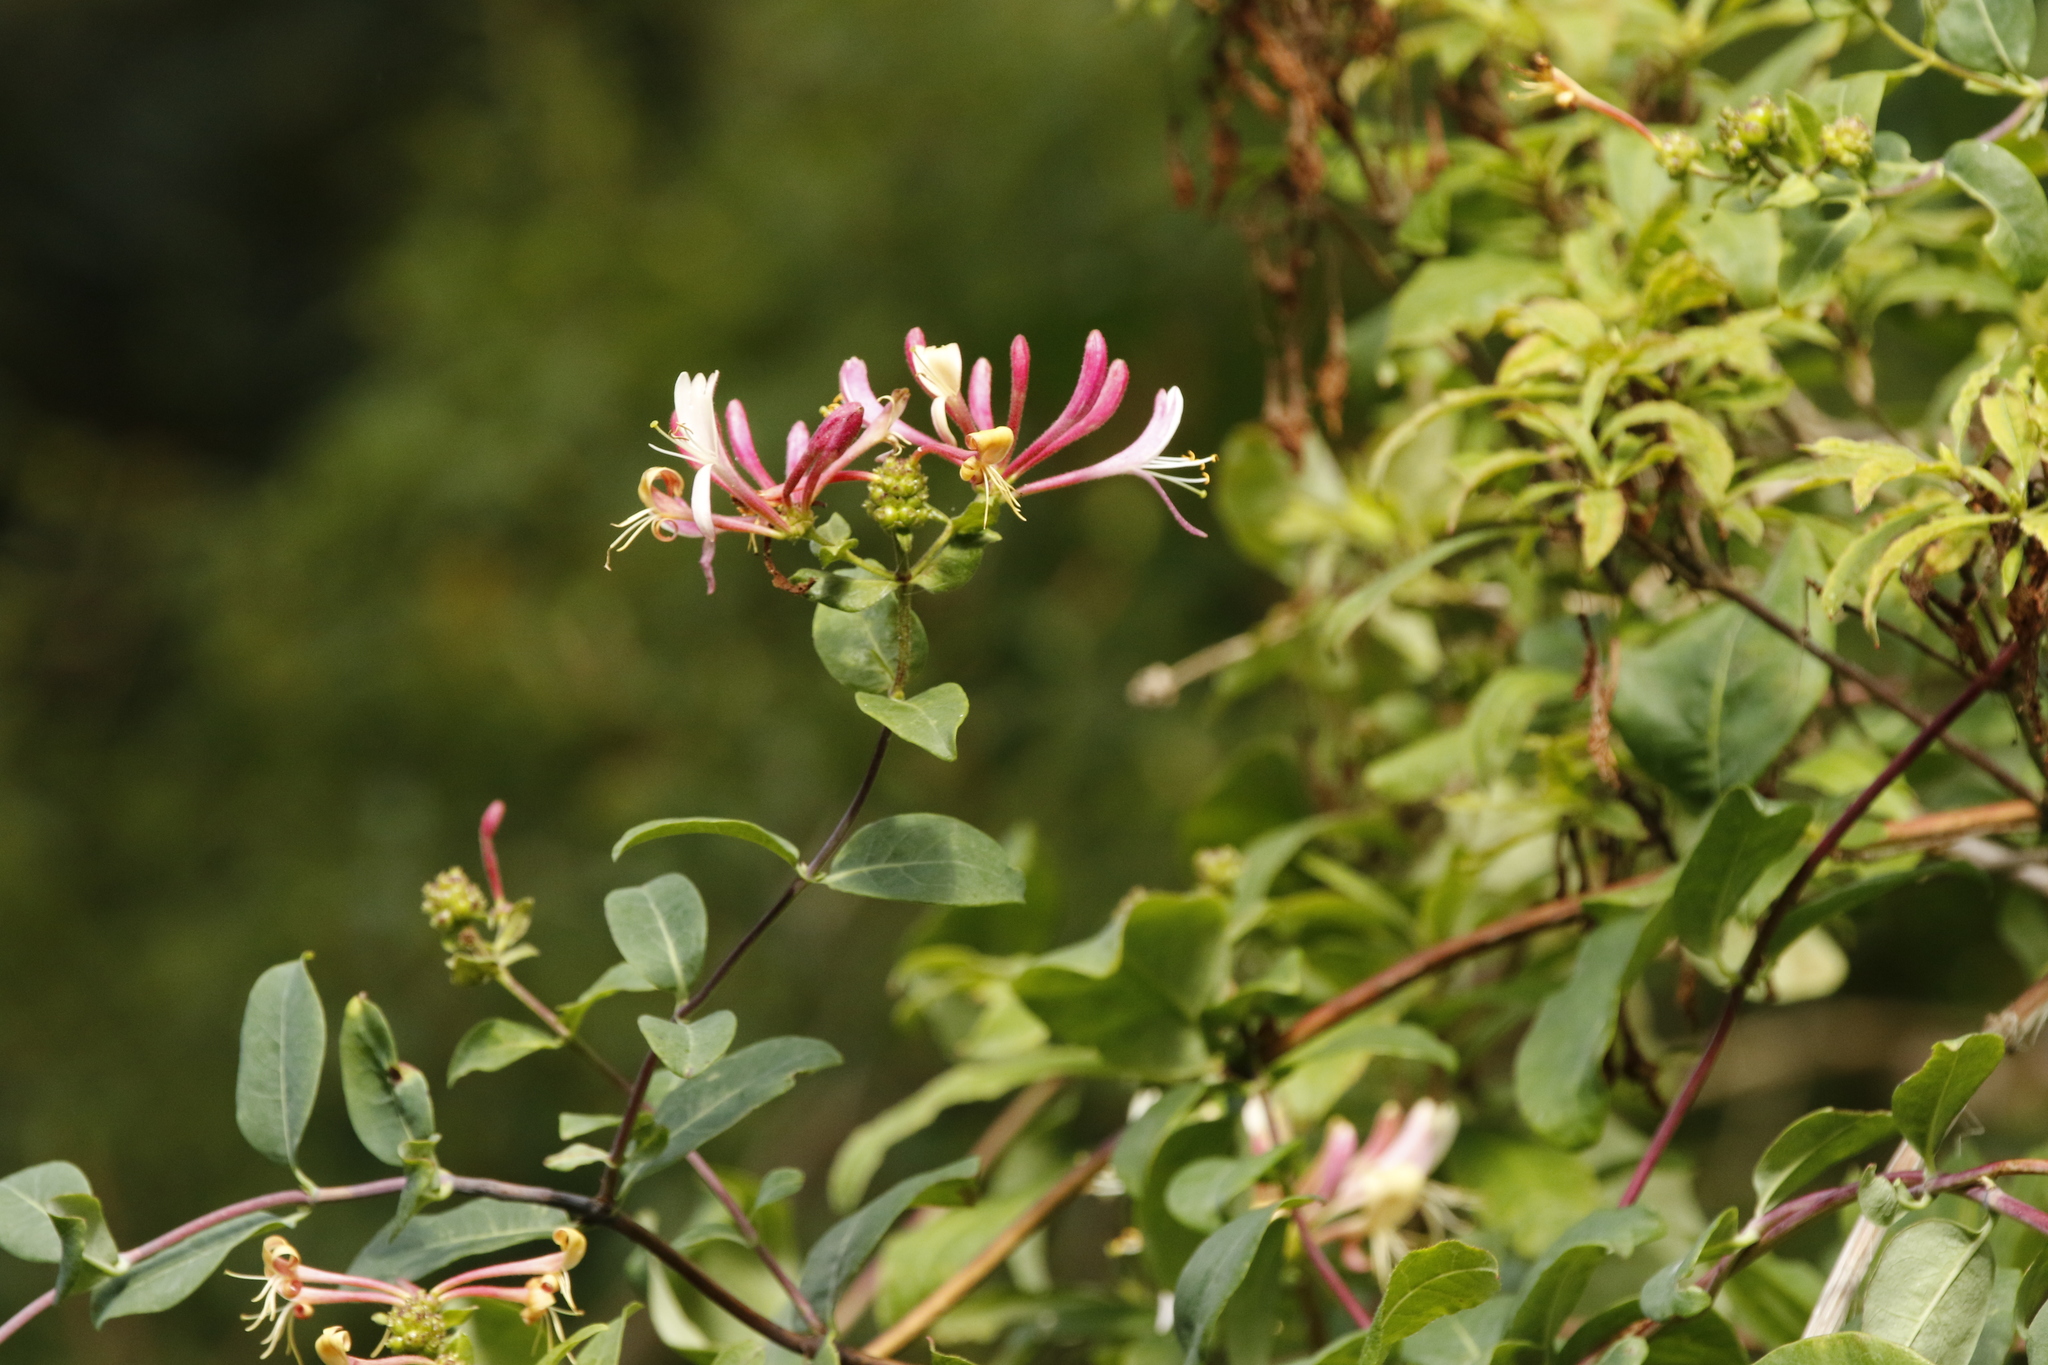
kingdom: Plantae
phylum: Tracheophyta
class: Magnoliopsida
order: Dipsacales
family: Caprifoliaceae
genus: Lonicera
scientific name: Lonicera periclymenum
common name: European honeysuckle
